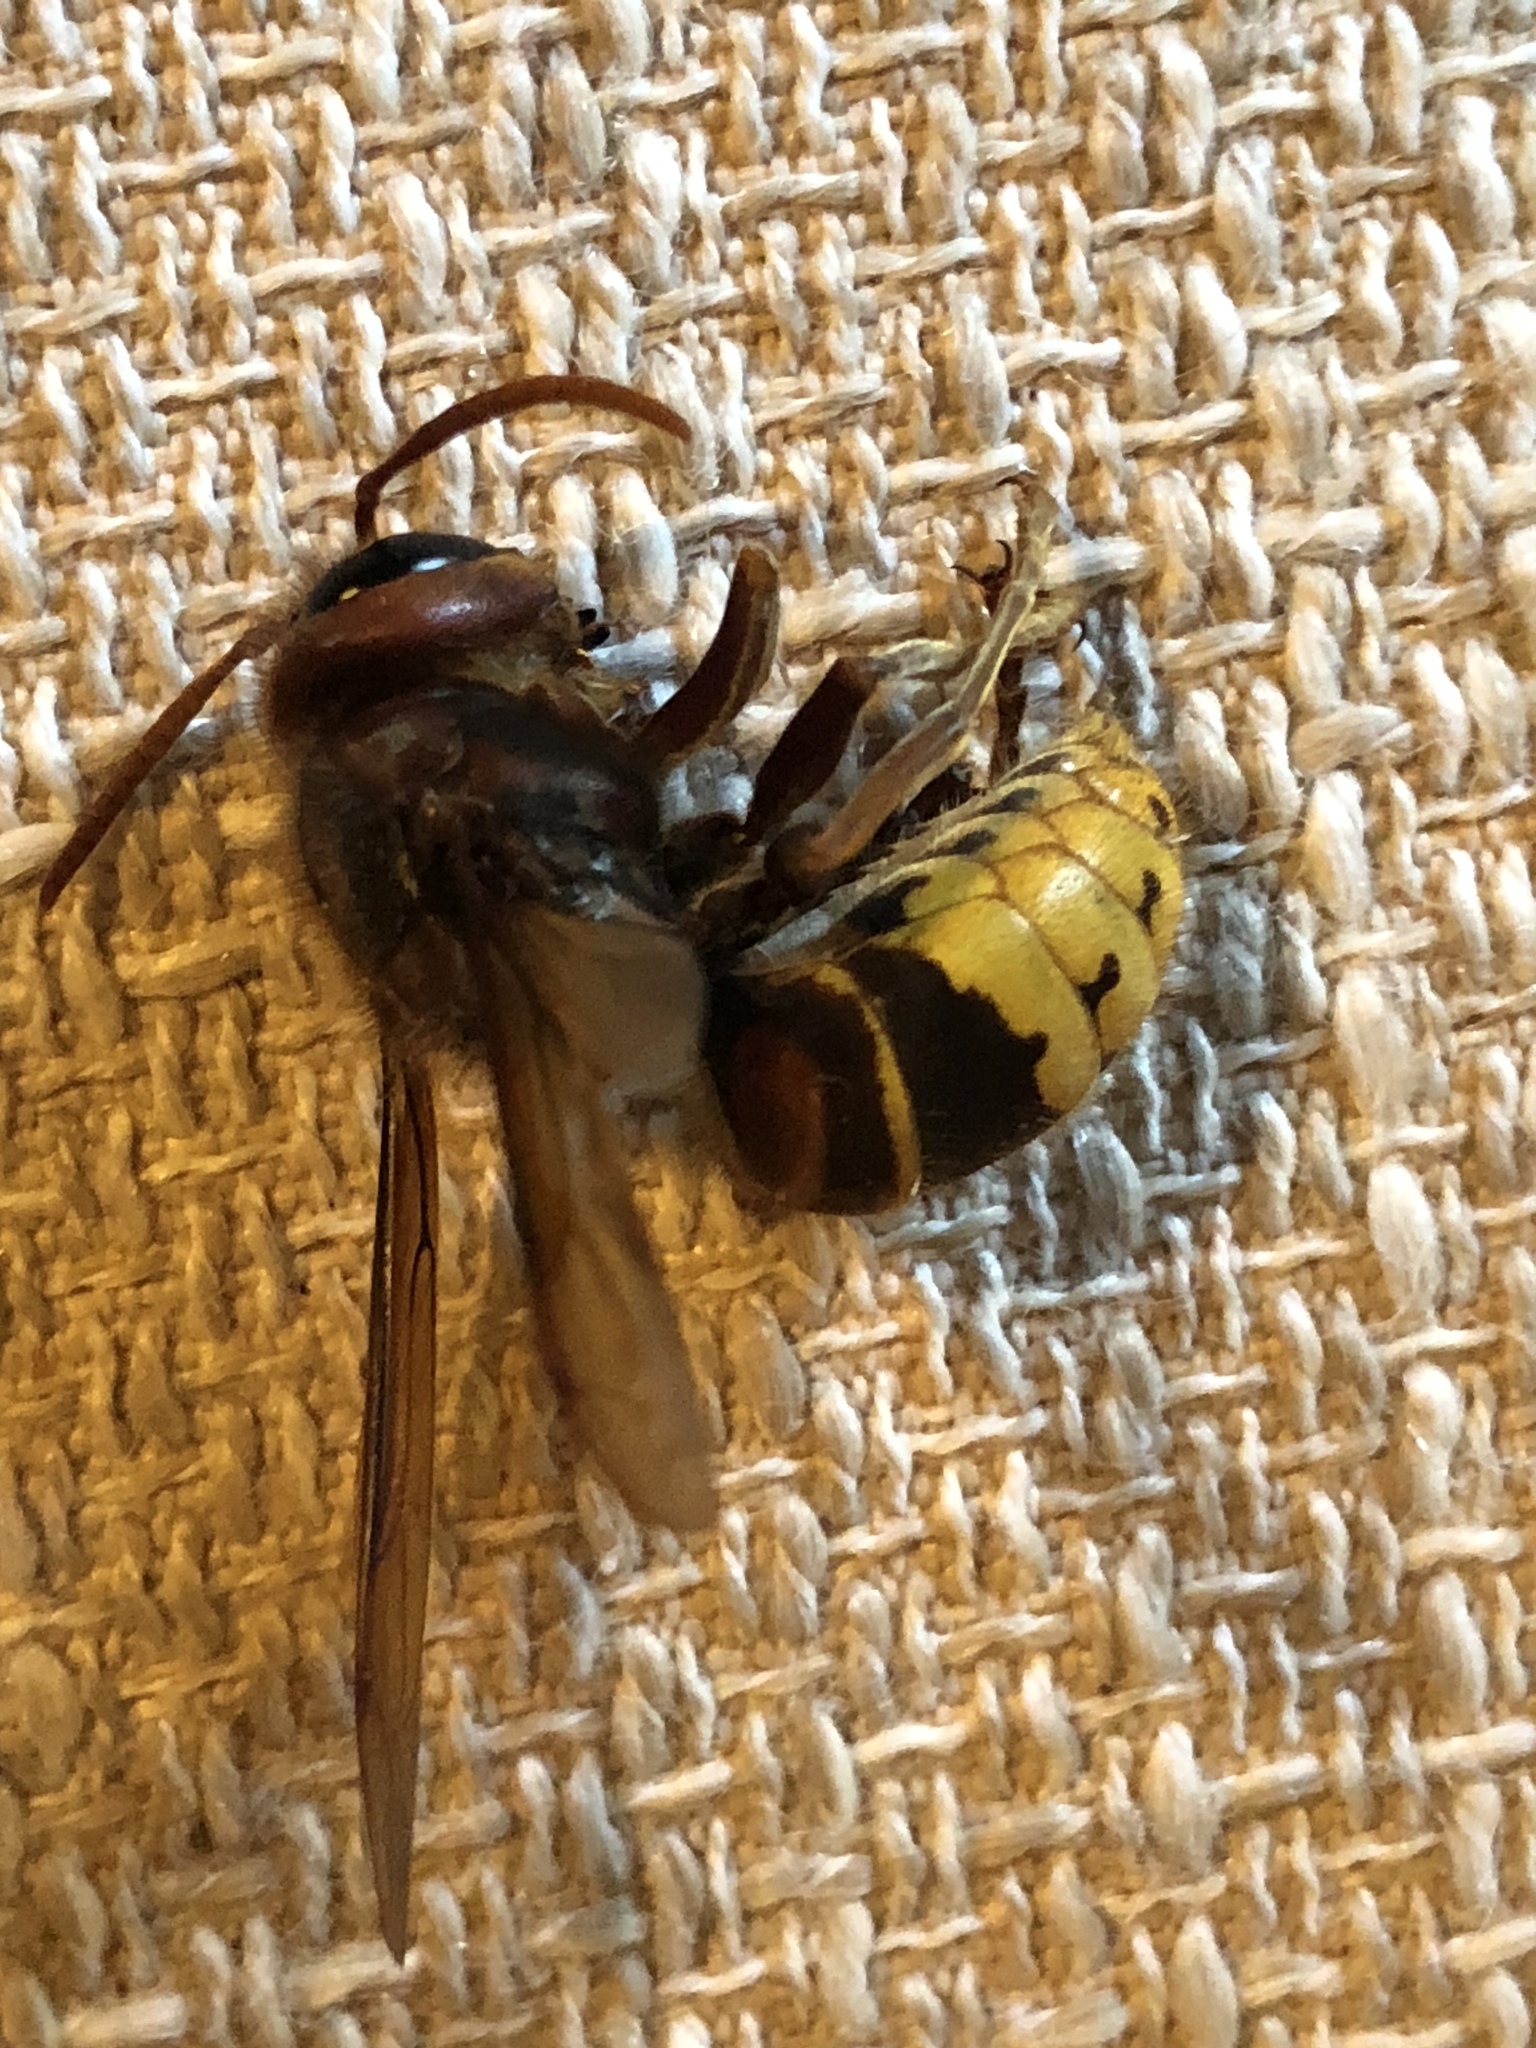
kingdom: Animalia
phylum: Arthropoda
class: Insecta
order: Hymenoptera
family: Vespidae
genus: Vespa
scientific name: Vespa crabro
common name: Hornet
